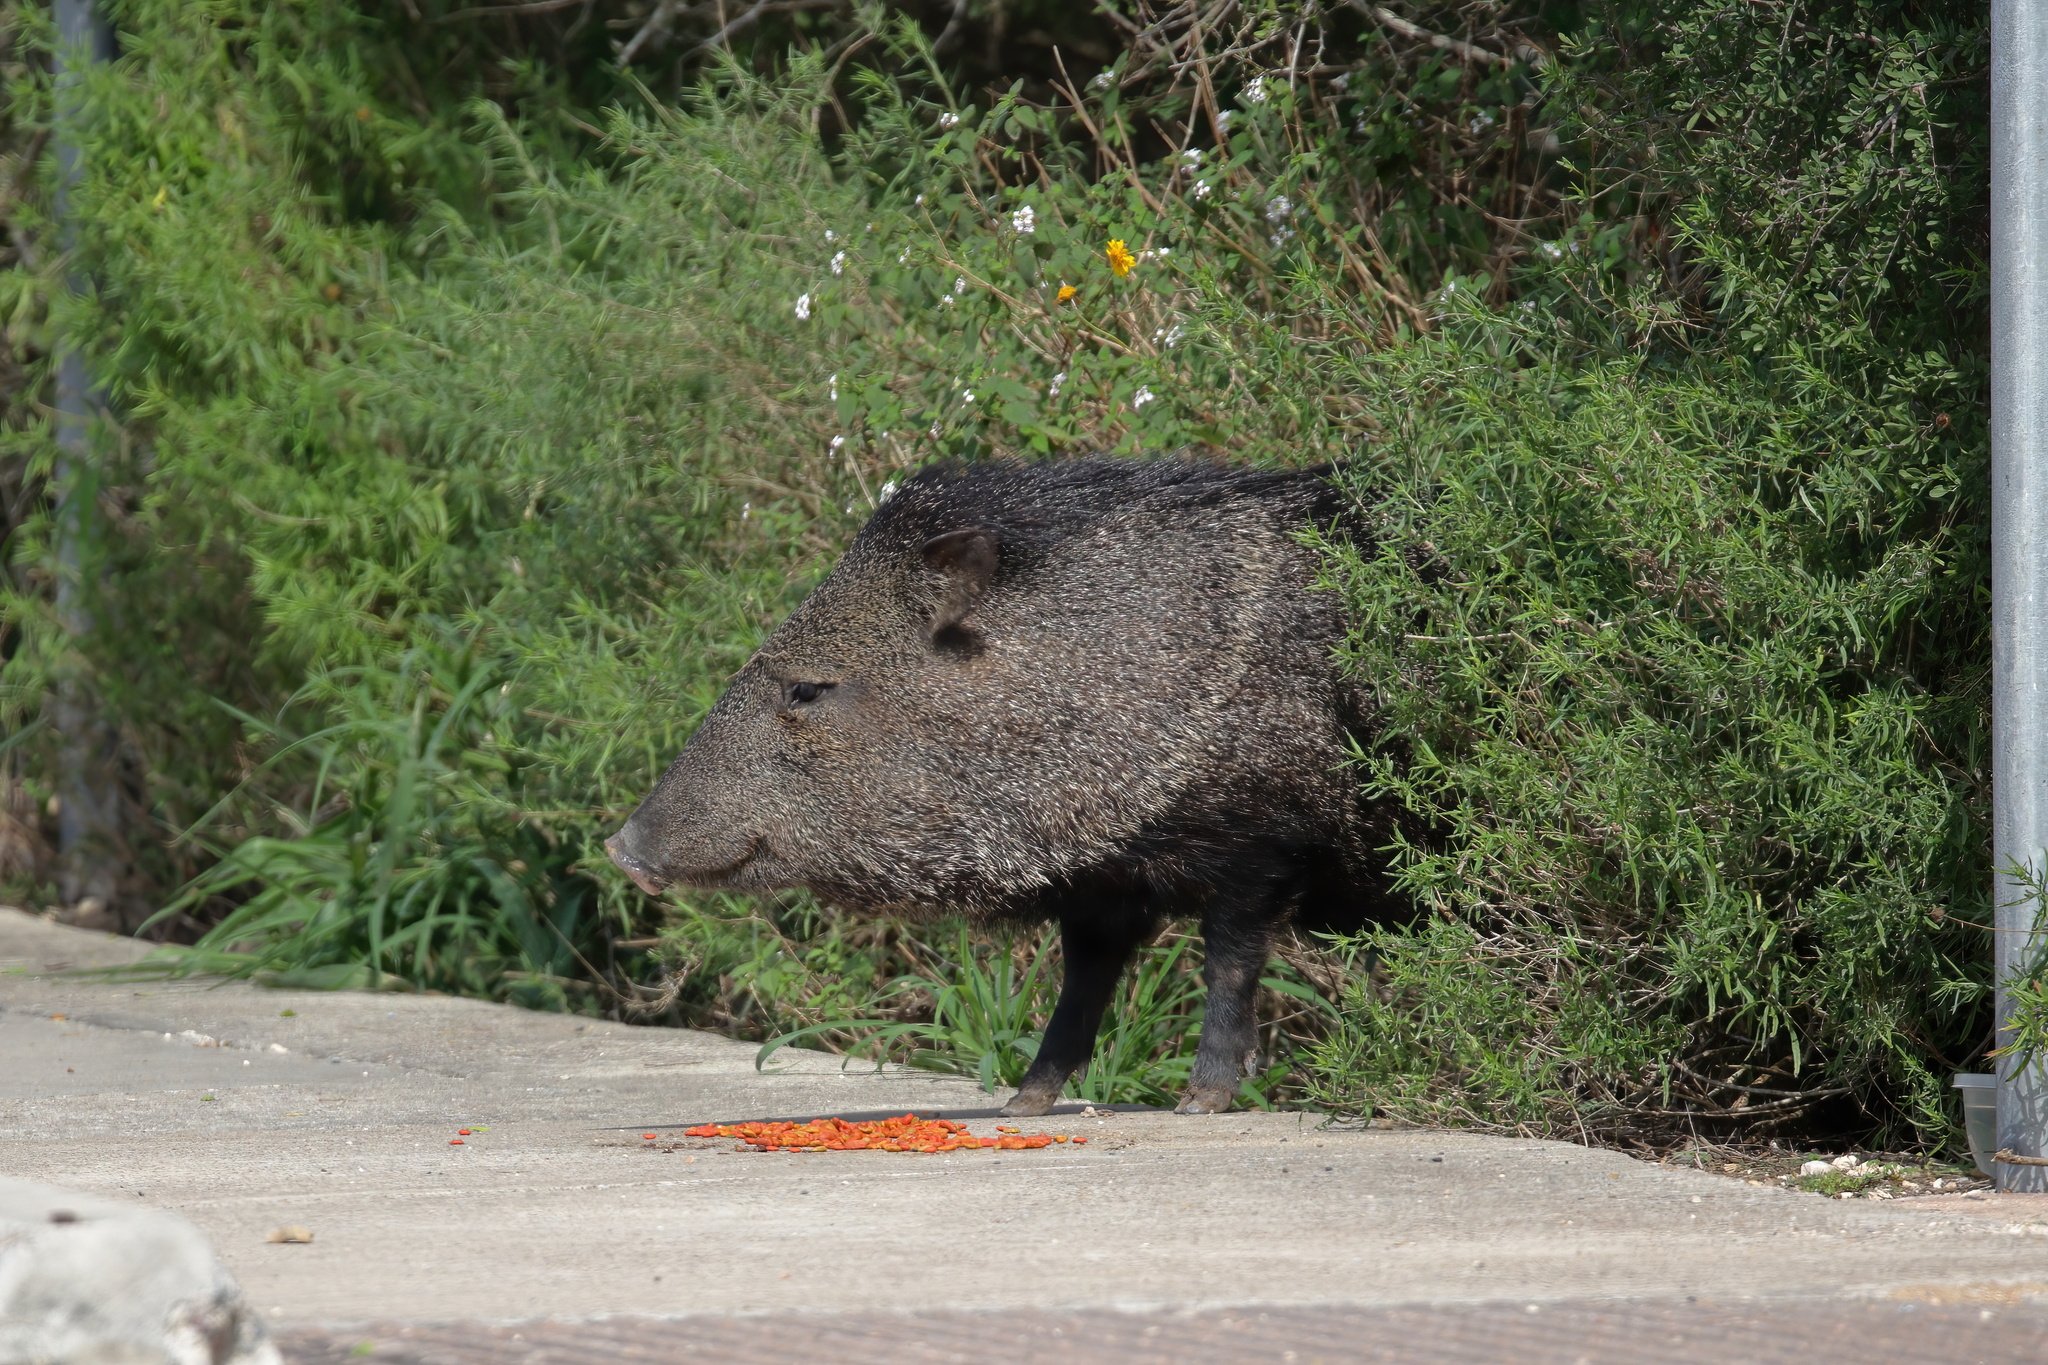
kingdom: Animalia
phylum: Chordata
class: Mammalia
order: Artiodactyla
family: Tayassuidae
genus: Pecari
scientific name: Pecari tajacu
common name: Collared peccary
